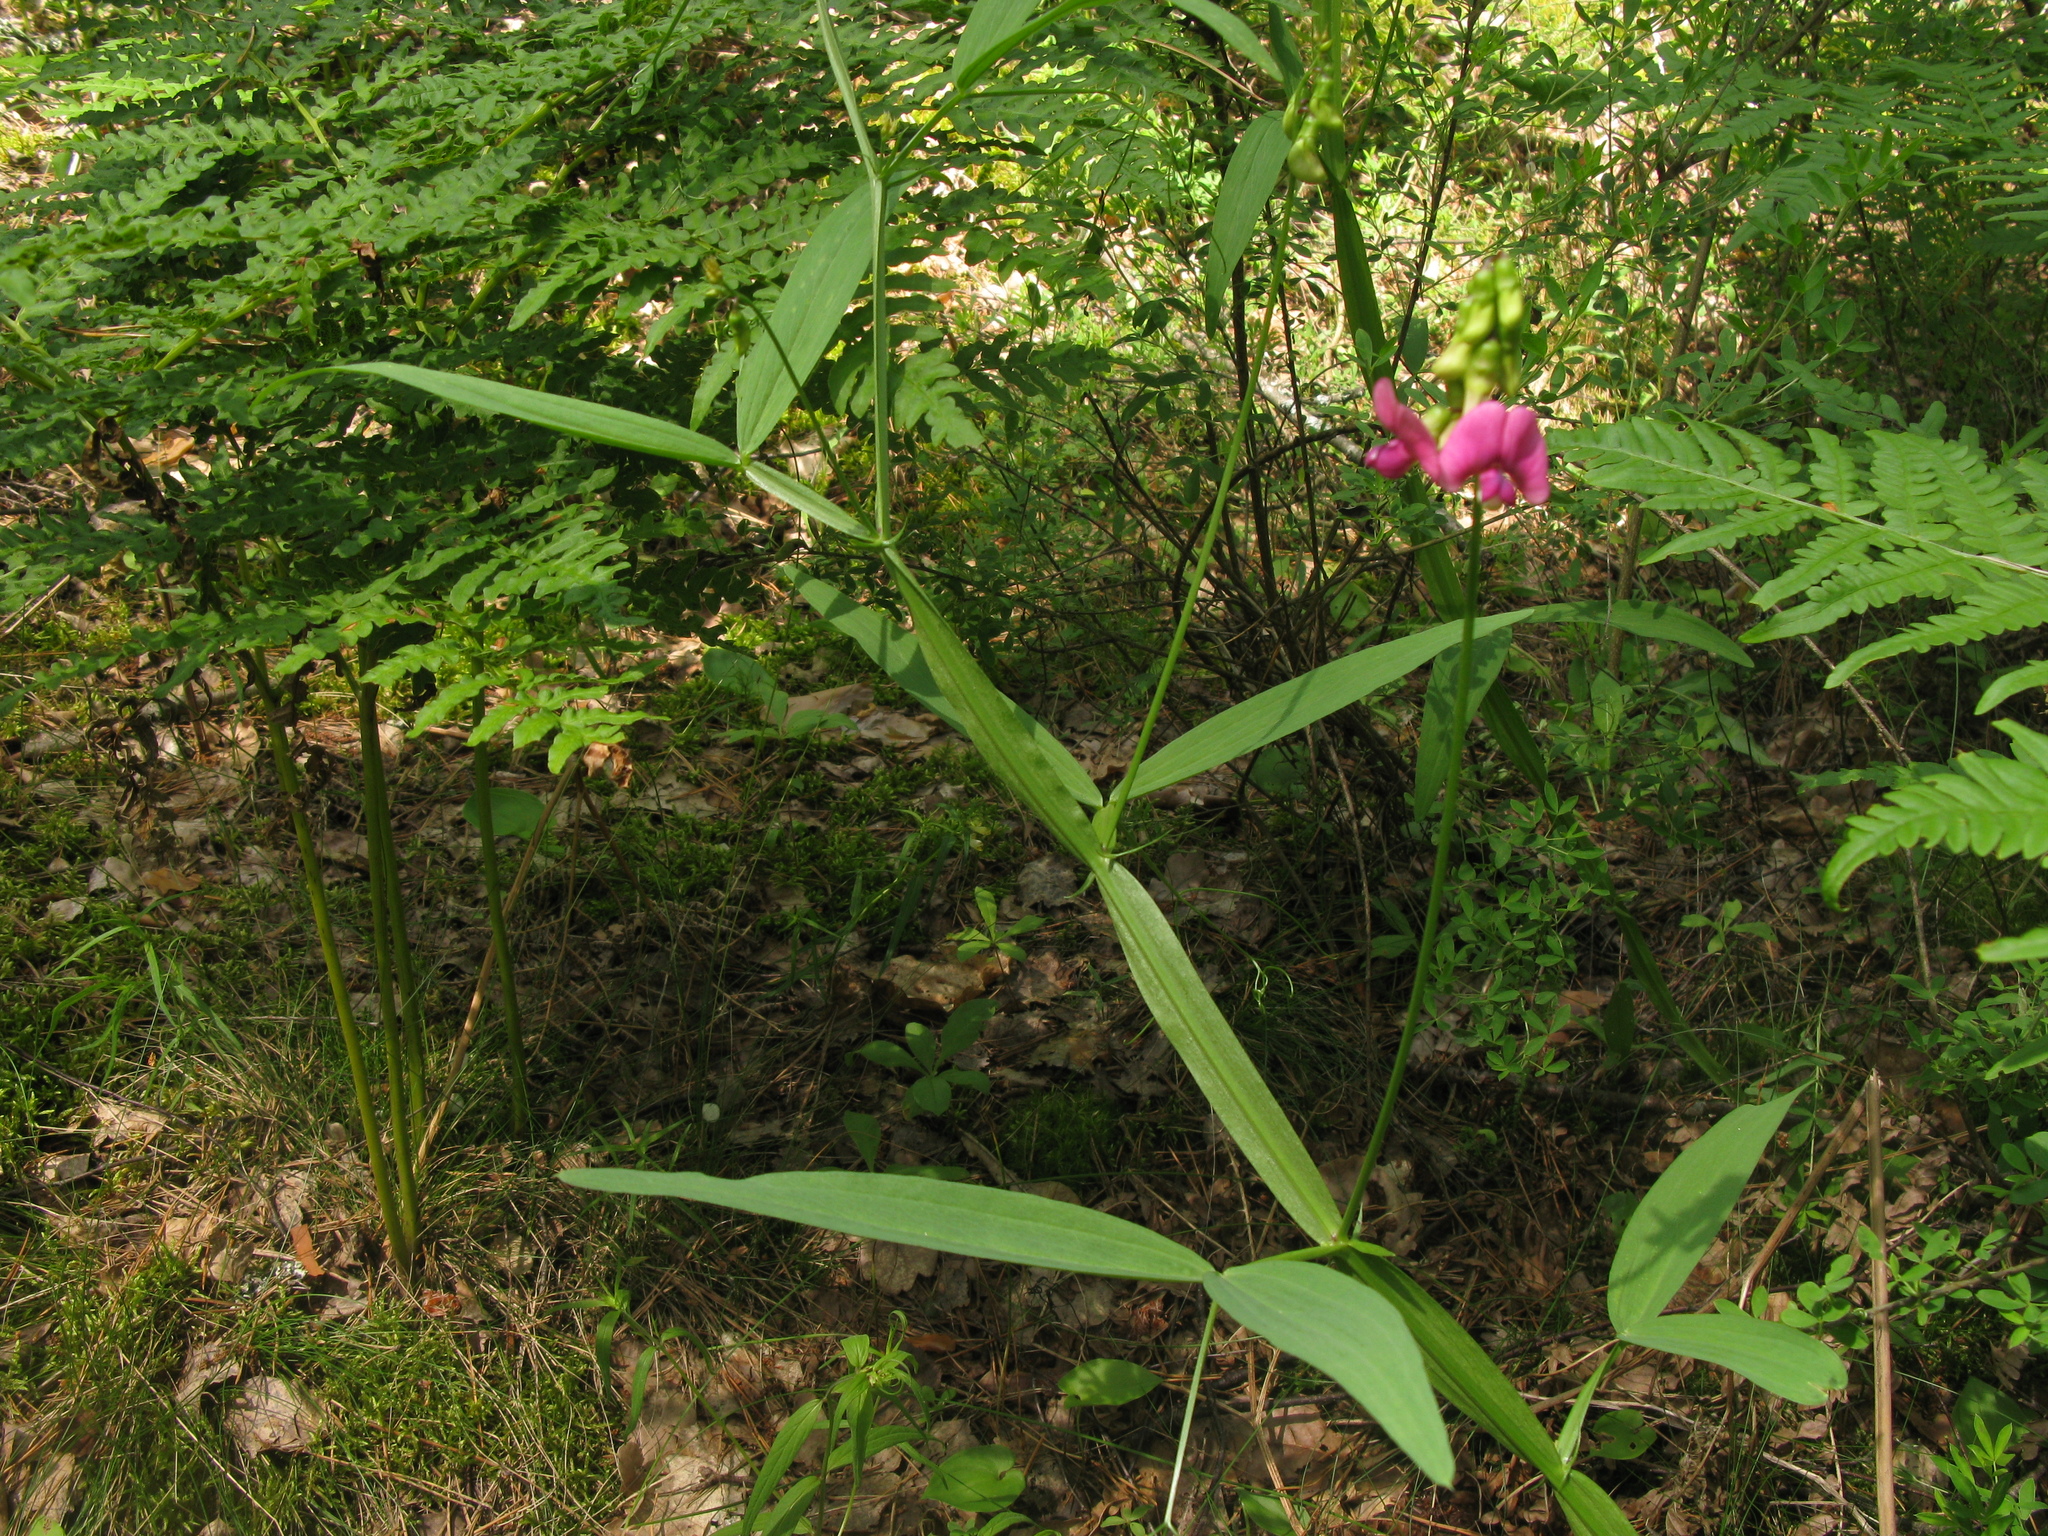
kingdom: Plantae
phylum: Tracheophyta
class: Magnoliopsida
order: Fabales
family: Fabaceae
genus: Lathyrus
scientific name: Lathyrus sylvestris
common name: Flat pea
